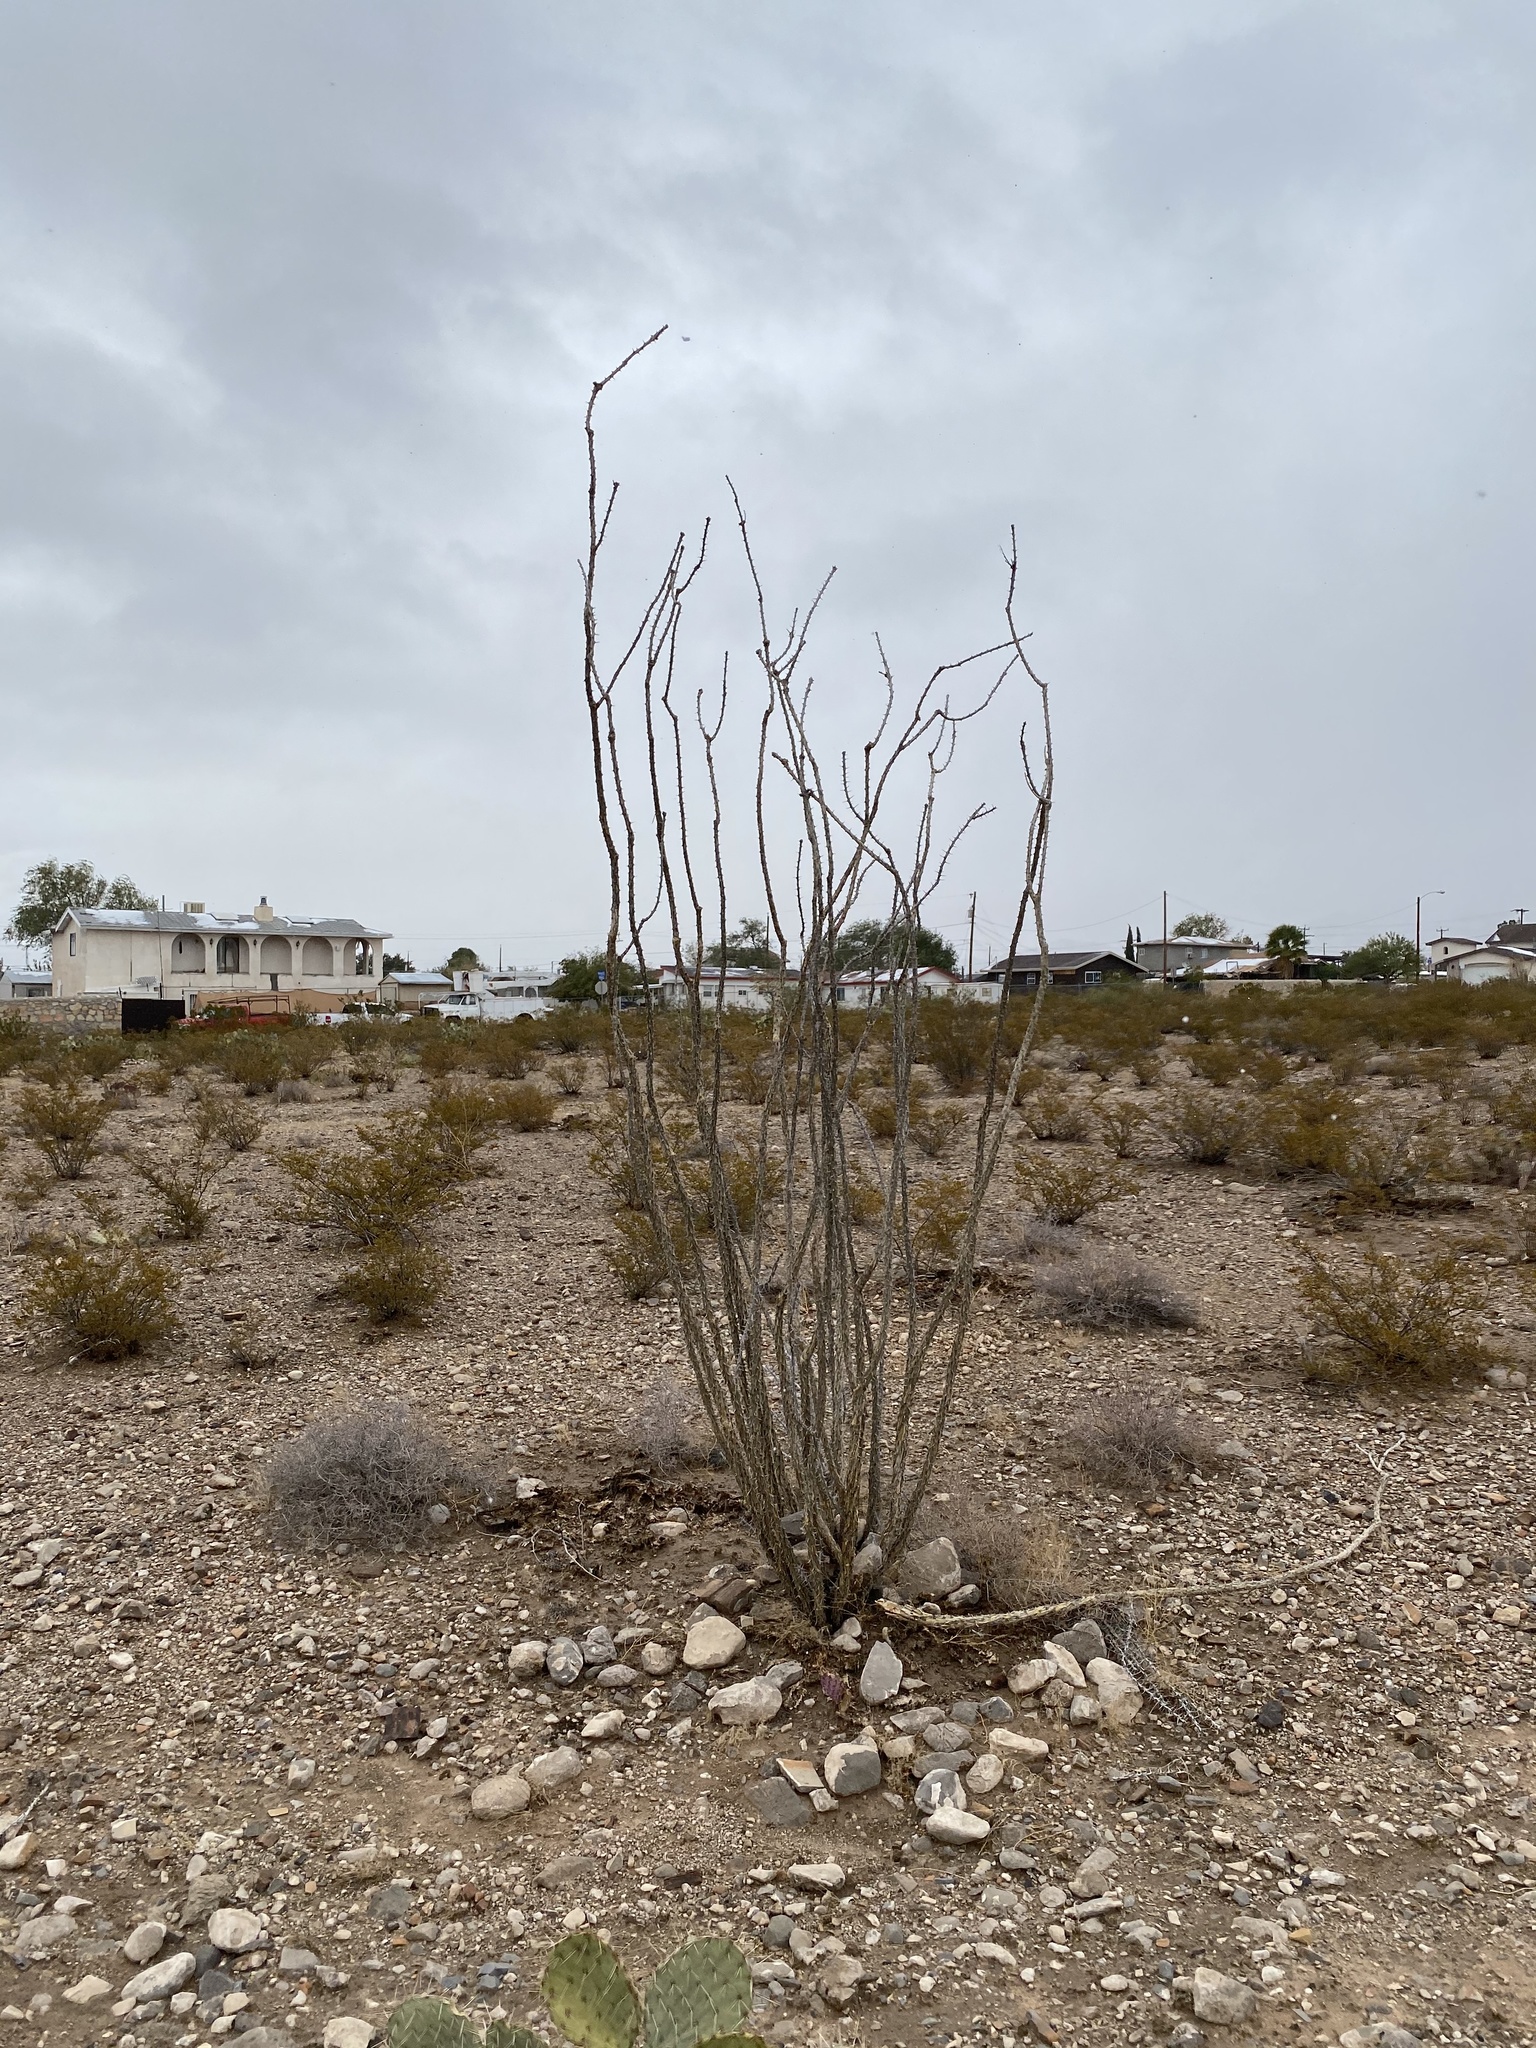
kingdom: Plantae
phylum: Tracheophyta
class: Magnoliopsida
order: Ericales
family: Fouquieriaceae
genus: Fouquieria
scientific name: Fouquieria splendens
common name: Vine-cactus
